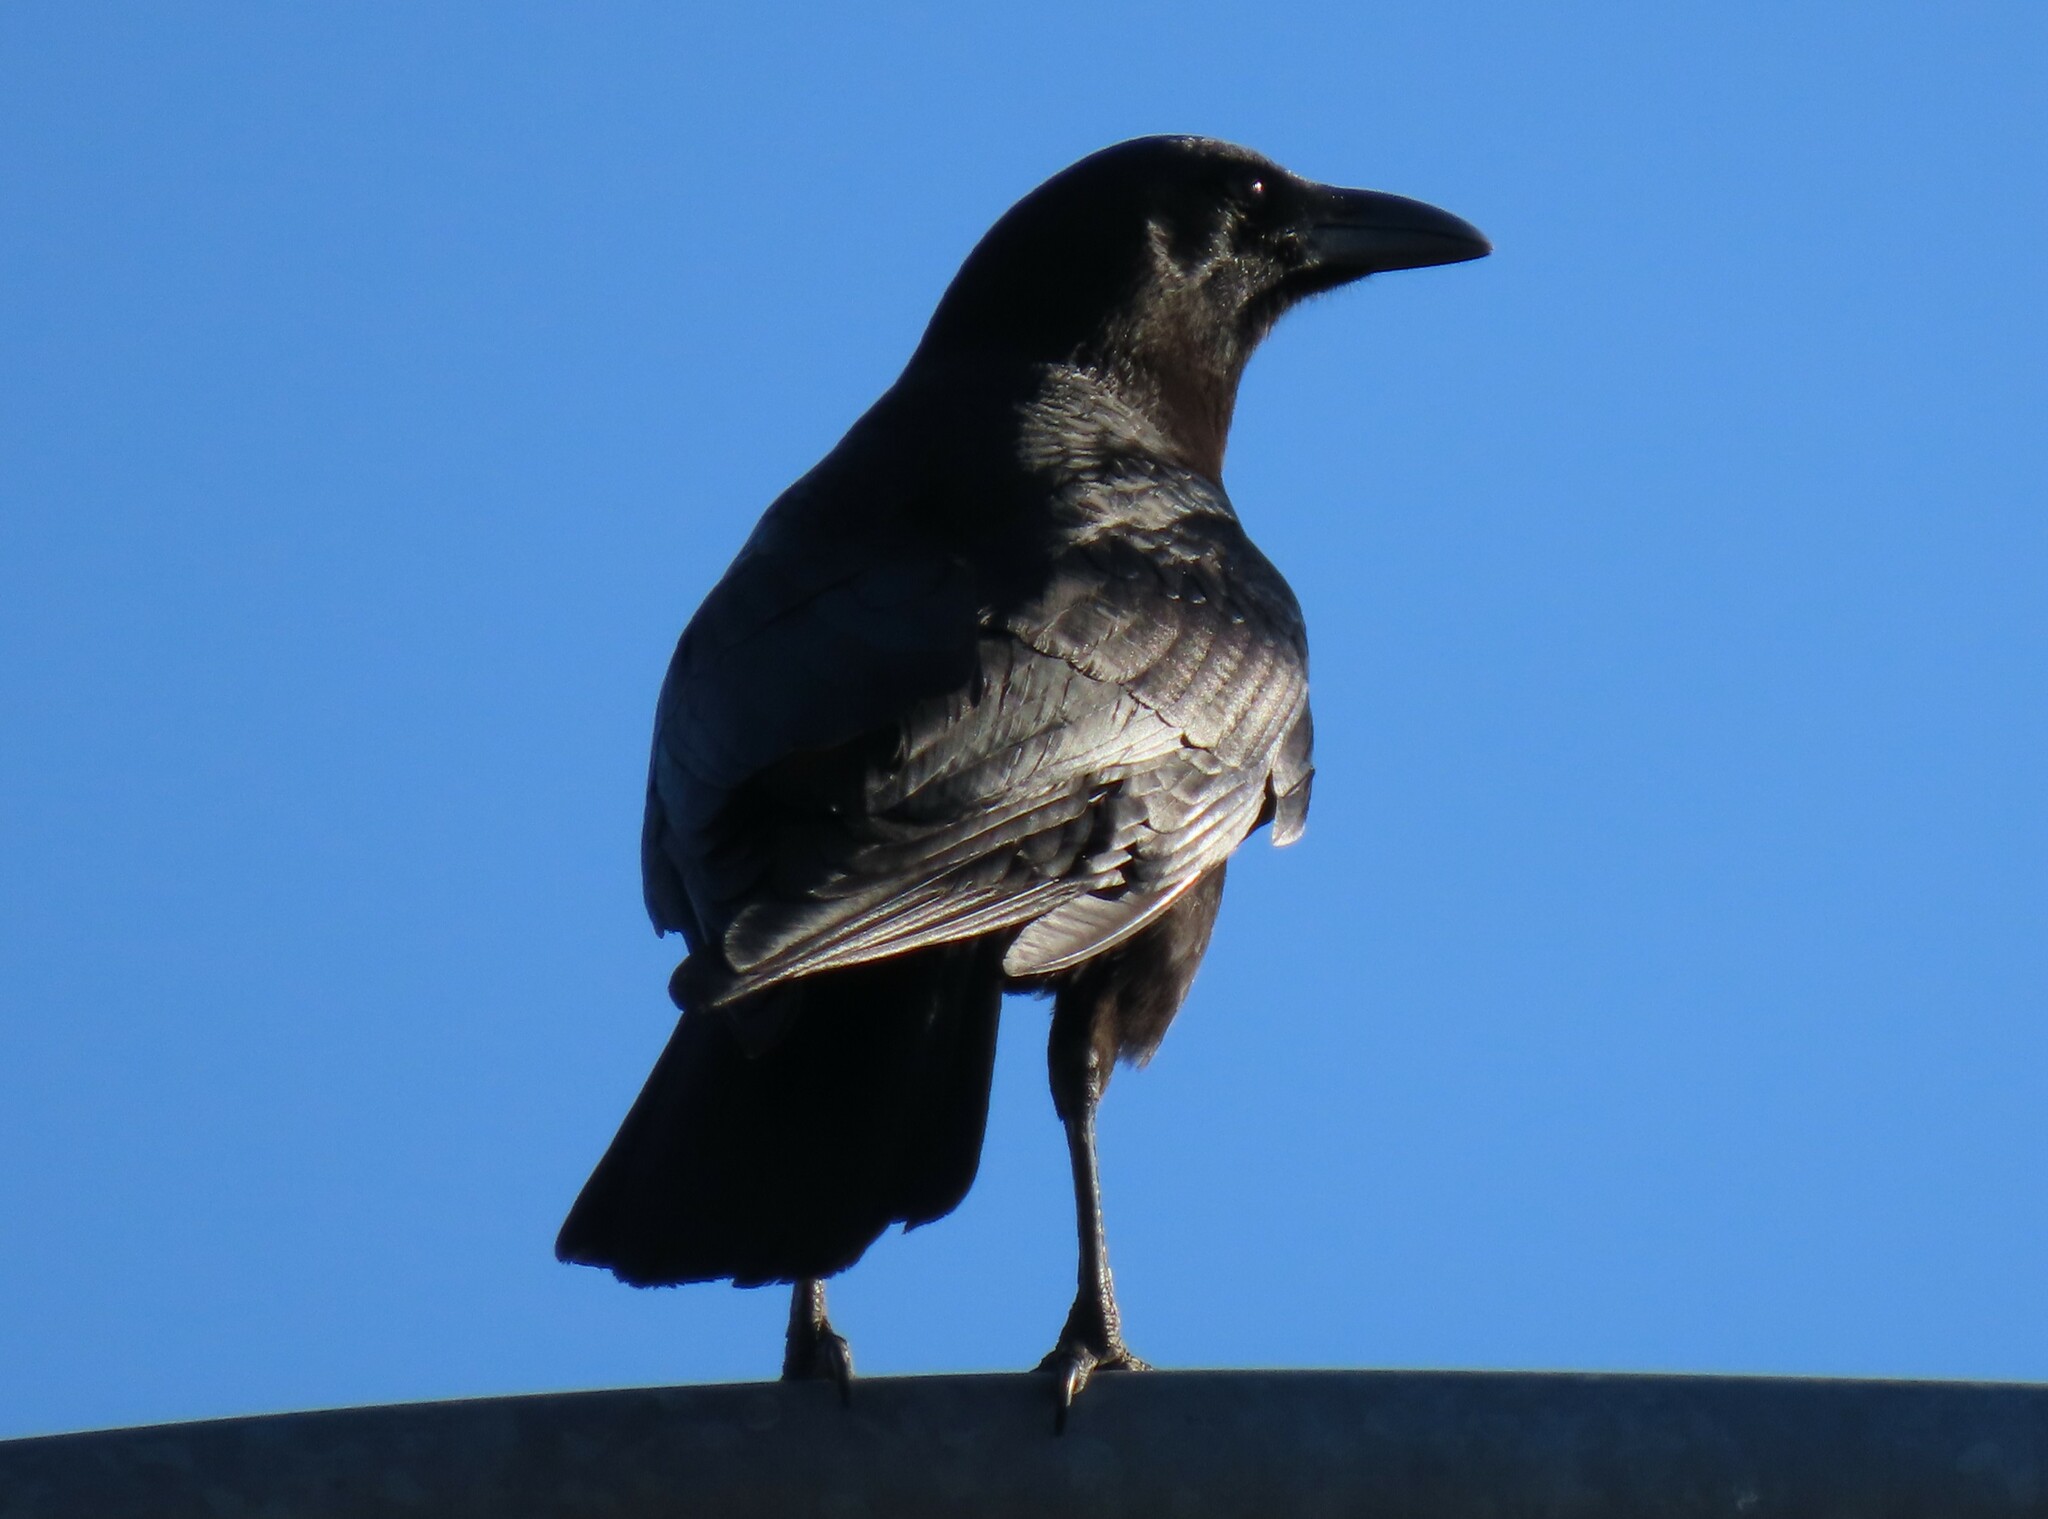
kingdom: Animalia
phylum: Chordata
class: Aves
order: Passeriformes
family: Corvidae
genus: Corvus
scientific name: Corvus brachyrhynchos
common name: American crow
